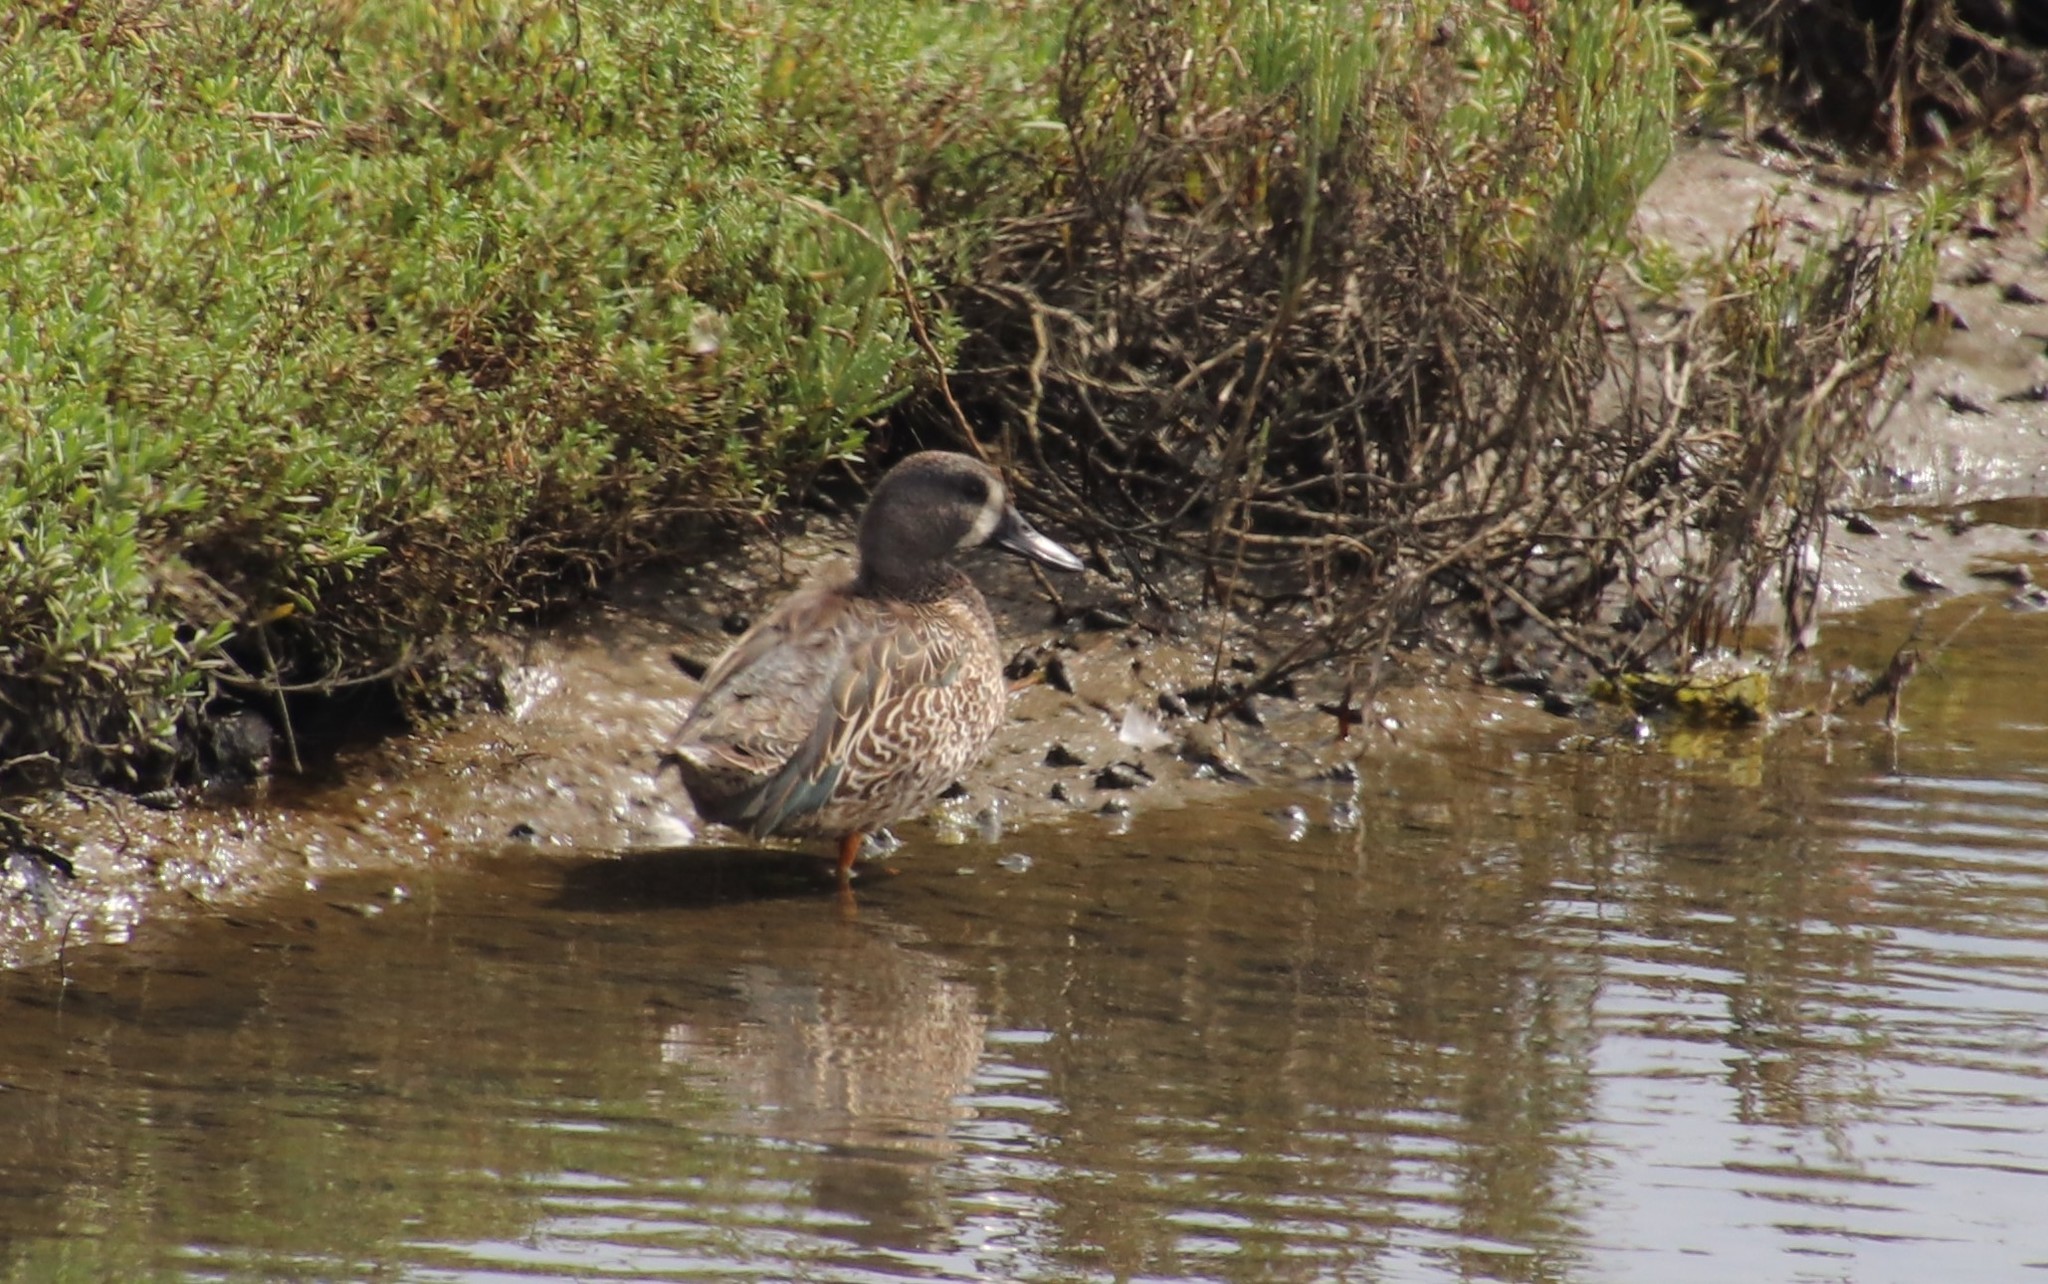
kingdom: Animalia
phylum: Chordata
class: Aves
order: Anseriformes
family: Anatidae
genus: Spatula
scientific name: Spatula discors
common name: Blue-winged teal
